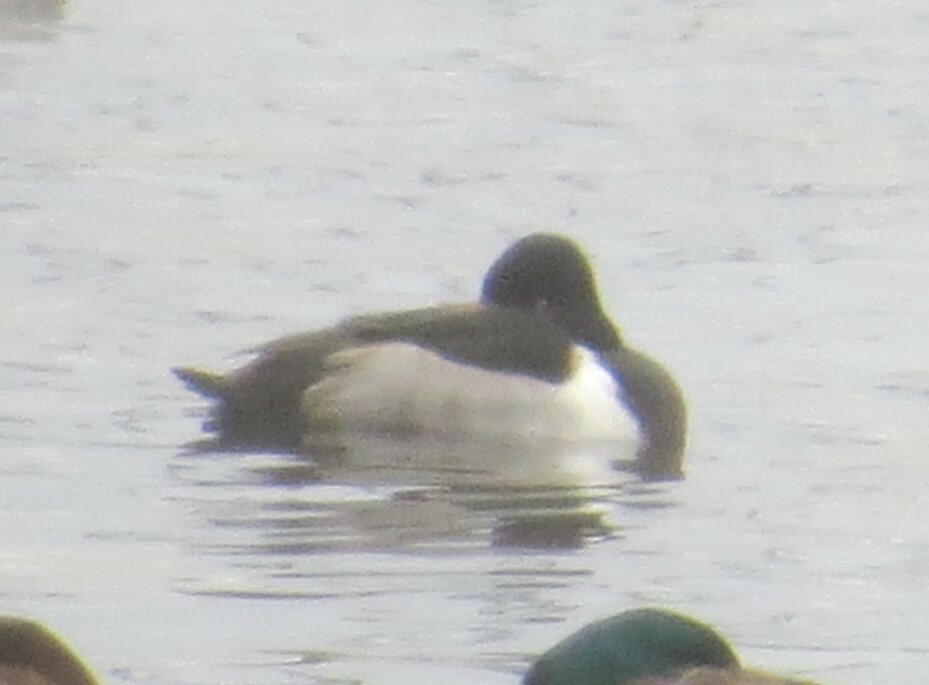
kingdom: Animalia
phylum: Chordata
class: Aves
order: Anseriformes
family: Anatidae
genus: Aythya
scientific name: Aythya collaris
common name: Ring-necked duck
